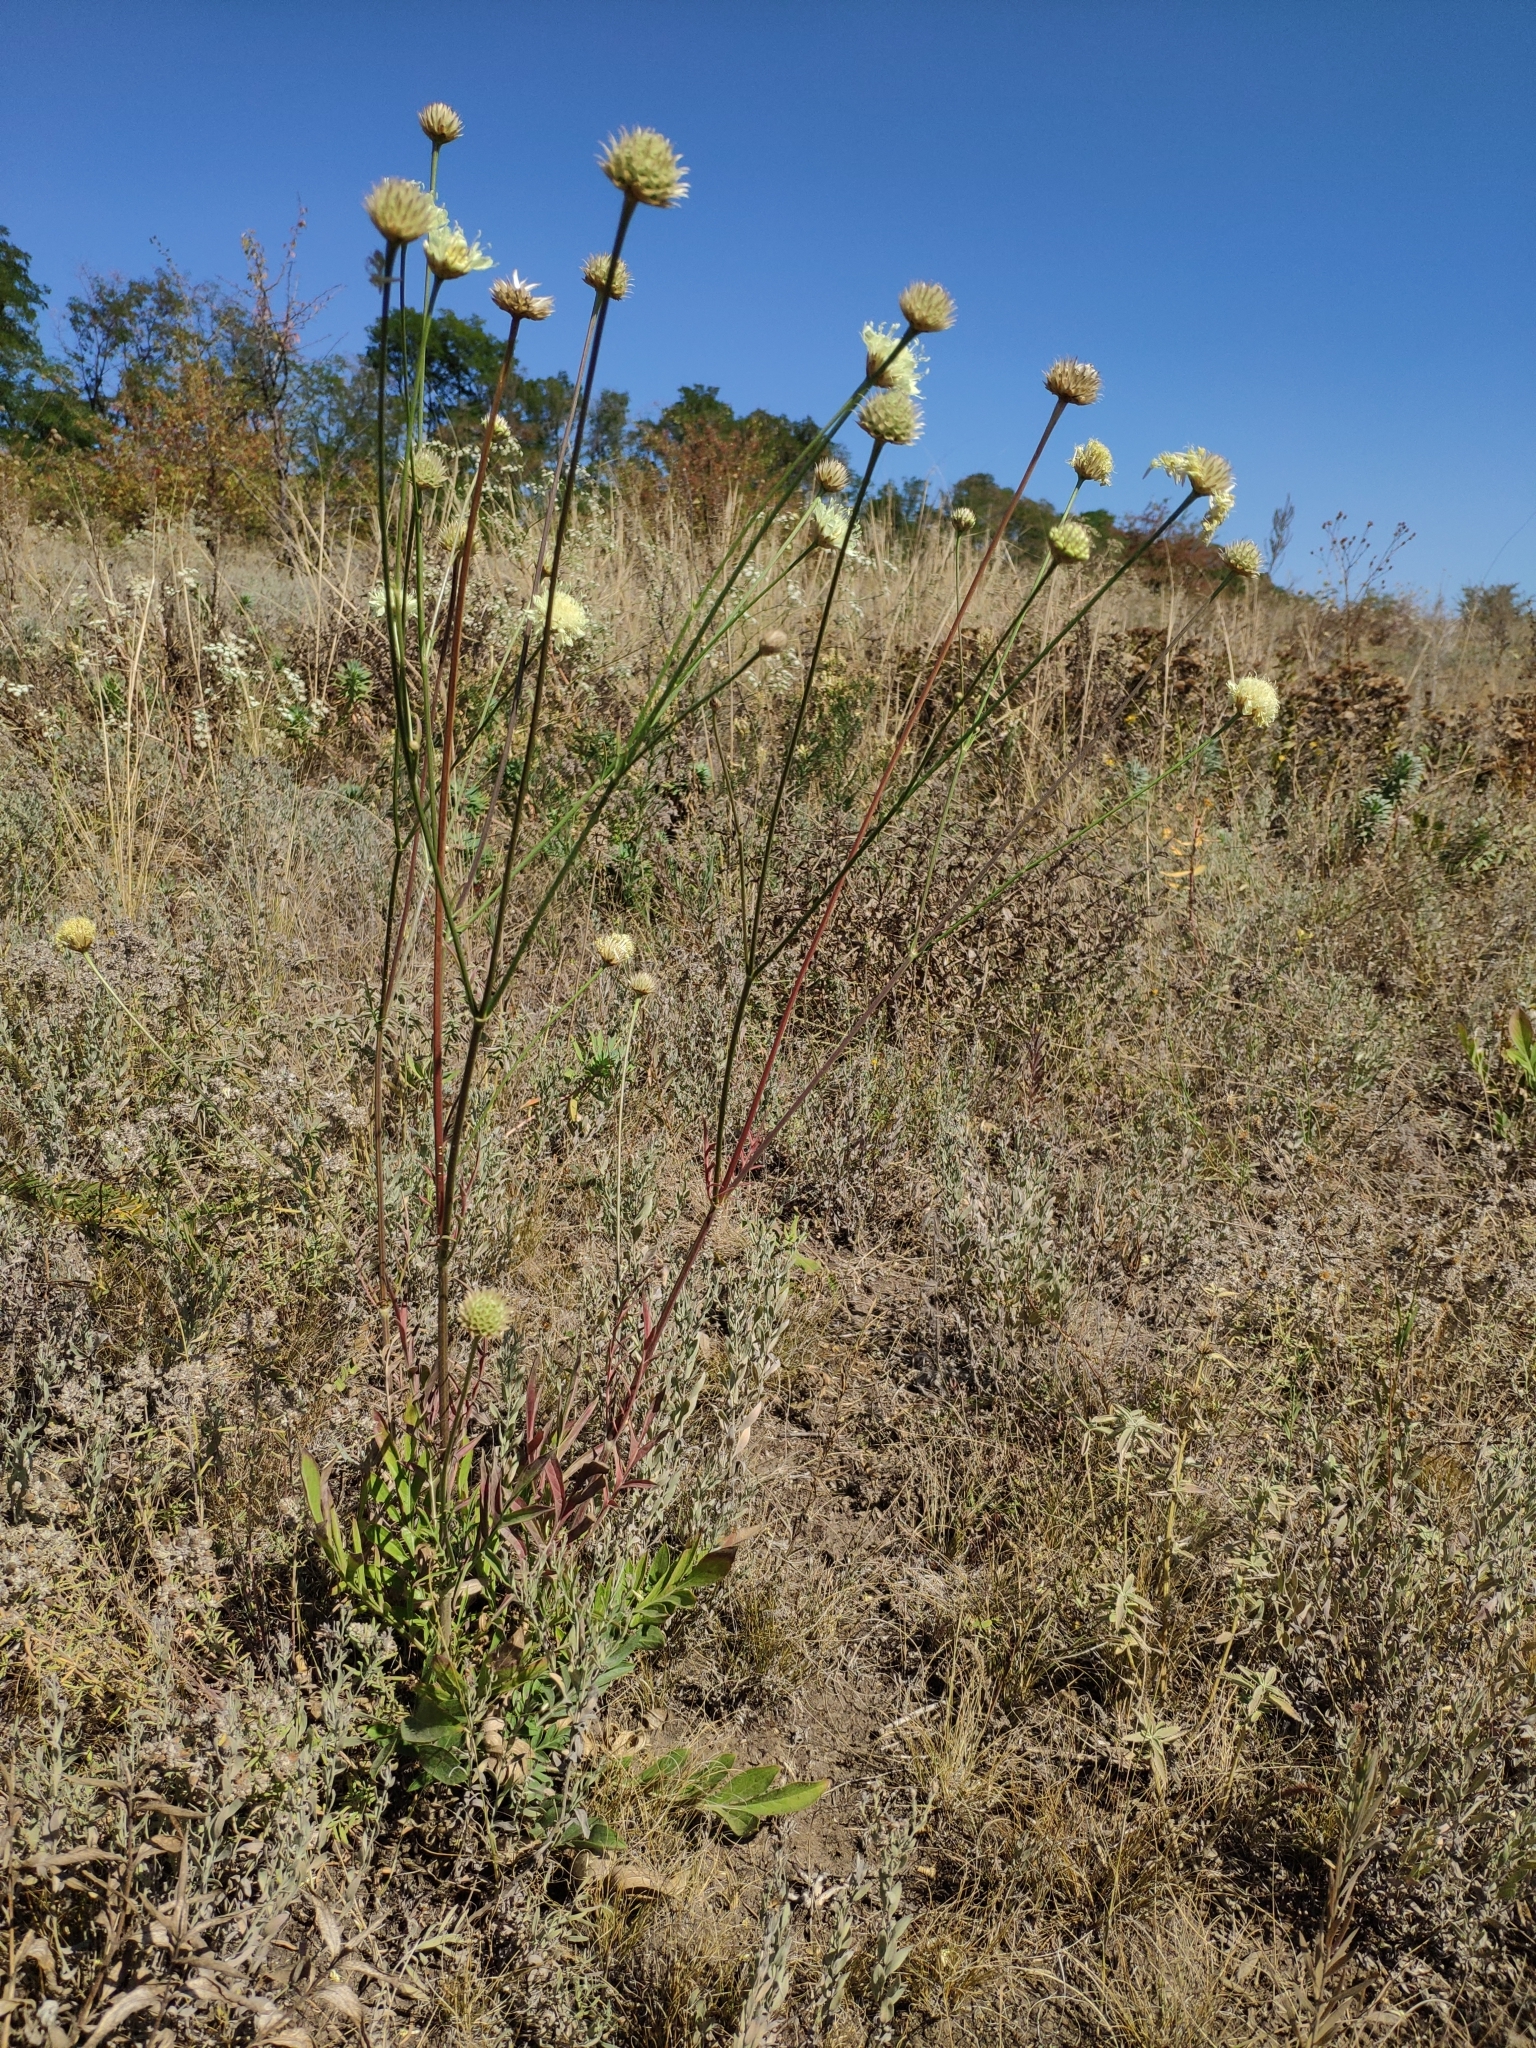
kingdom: Plantae
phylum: Tracheophyta
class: Magnoliopsida
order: Dipsacales
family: Caprifoliaceae
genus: Cephalaria
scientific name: Cephalaria uralensis
